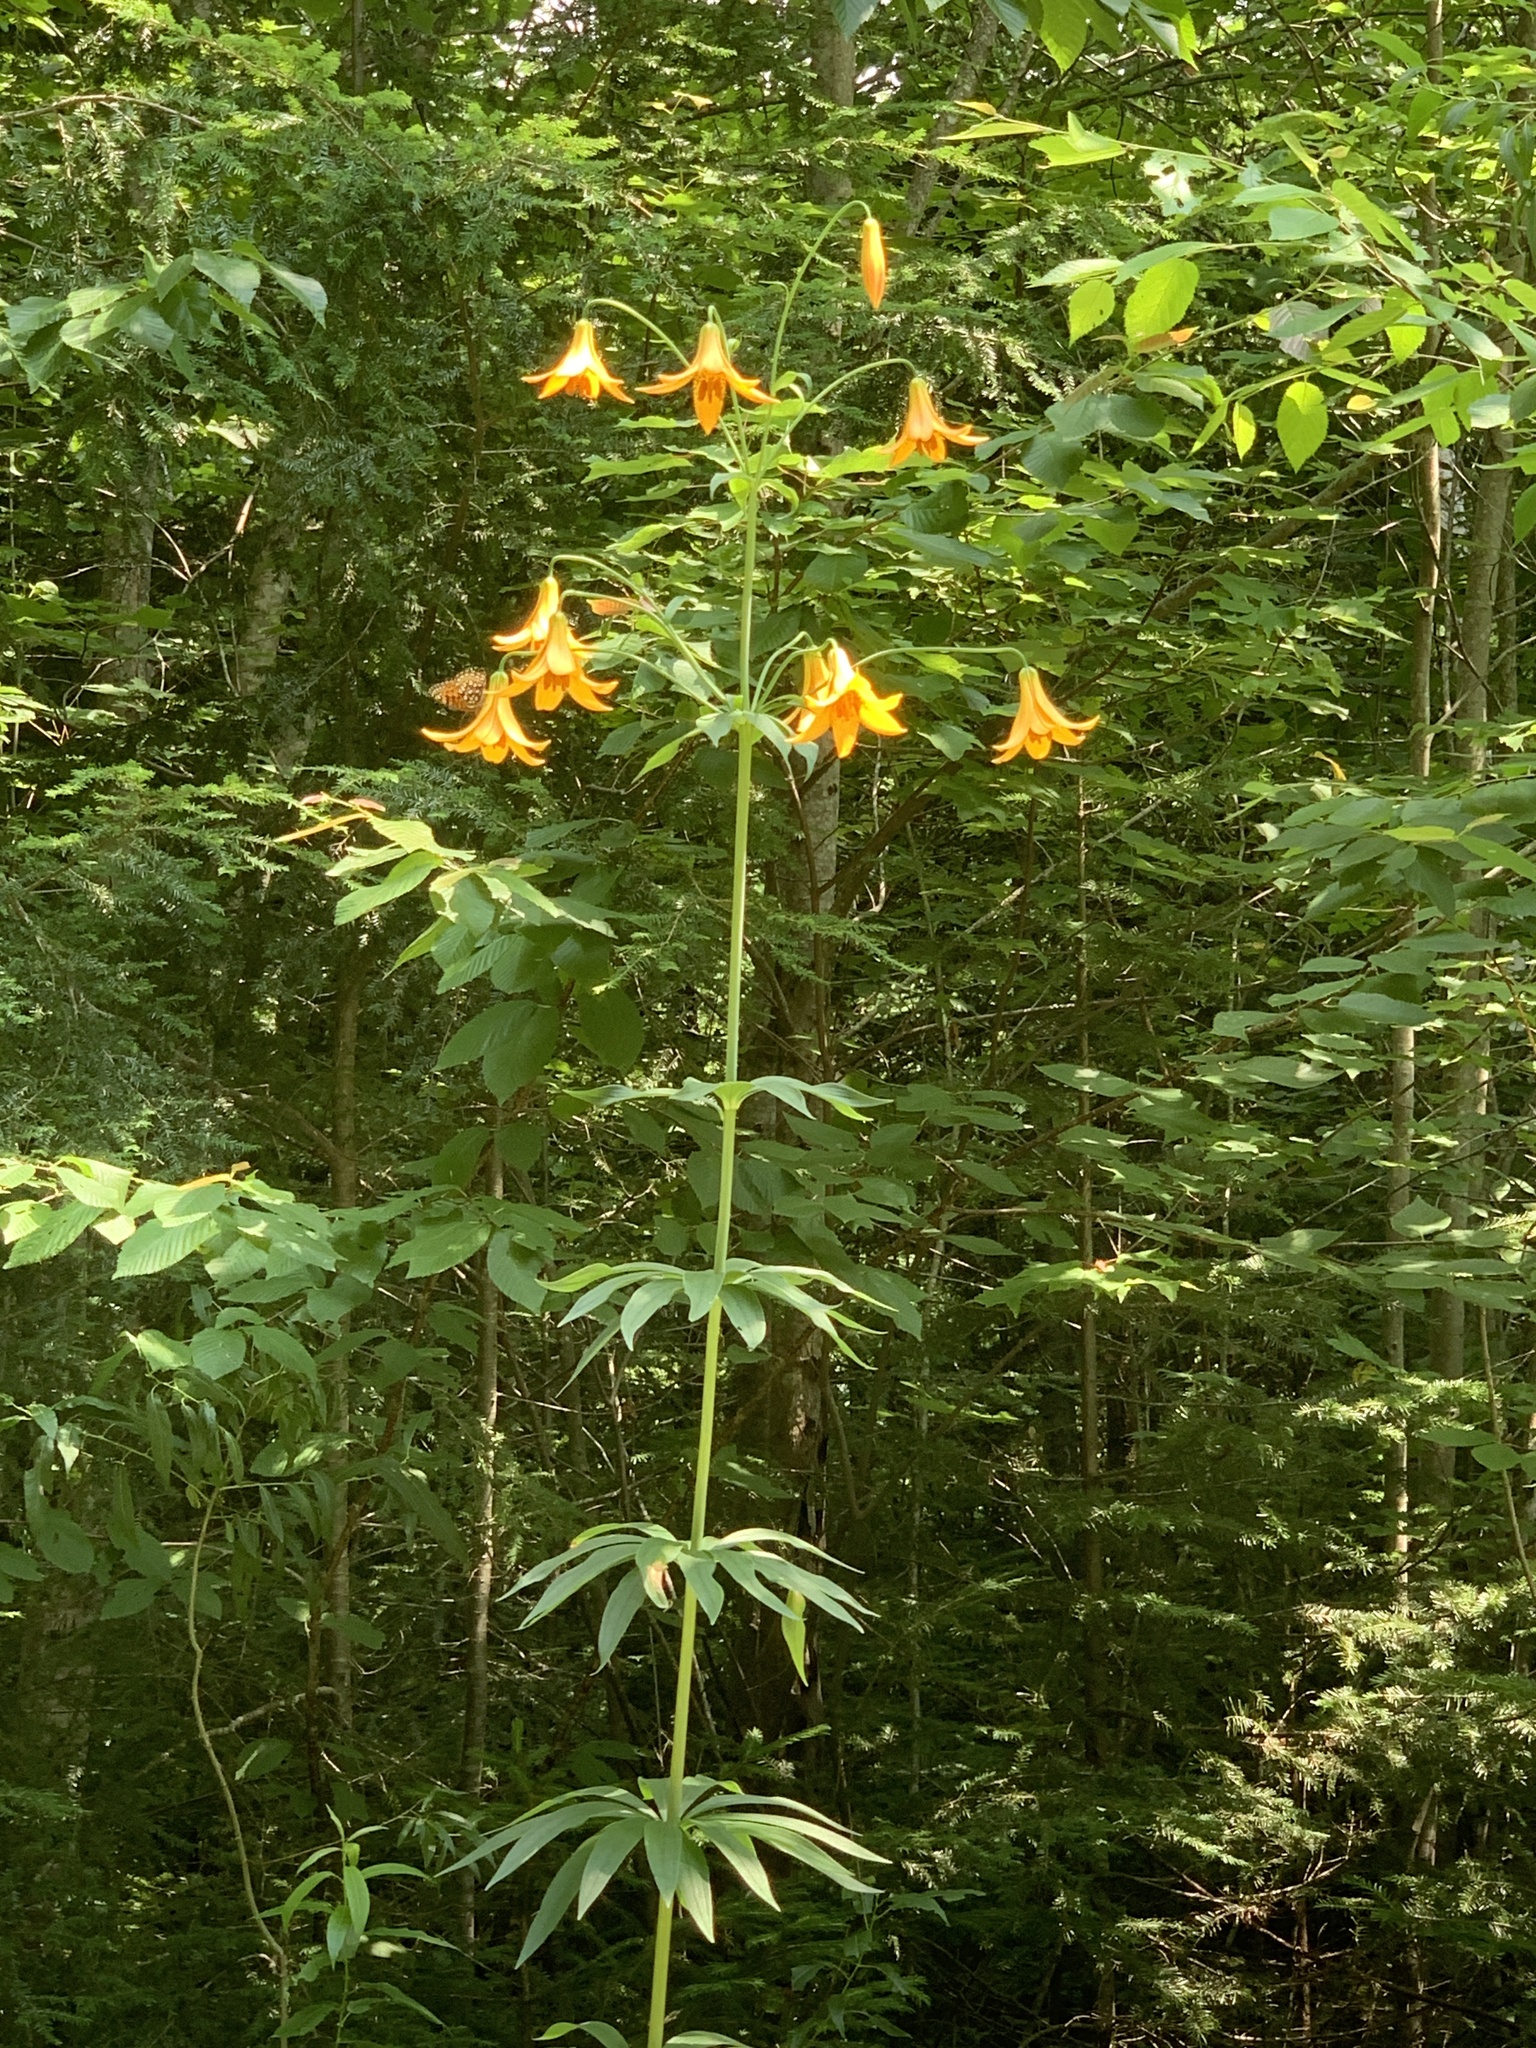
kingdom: Plantae
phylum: Tracheophyta
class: Liliopsida
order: Liliales
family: Liliaceae
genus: Lilium
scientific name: Lilium canadense
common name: Canada lily
